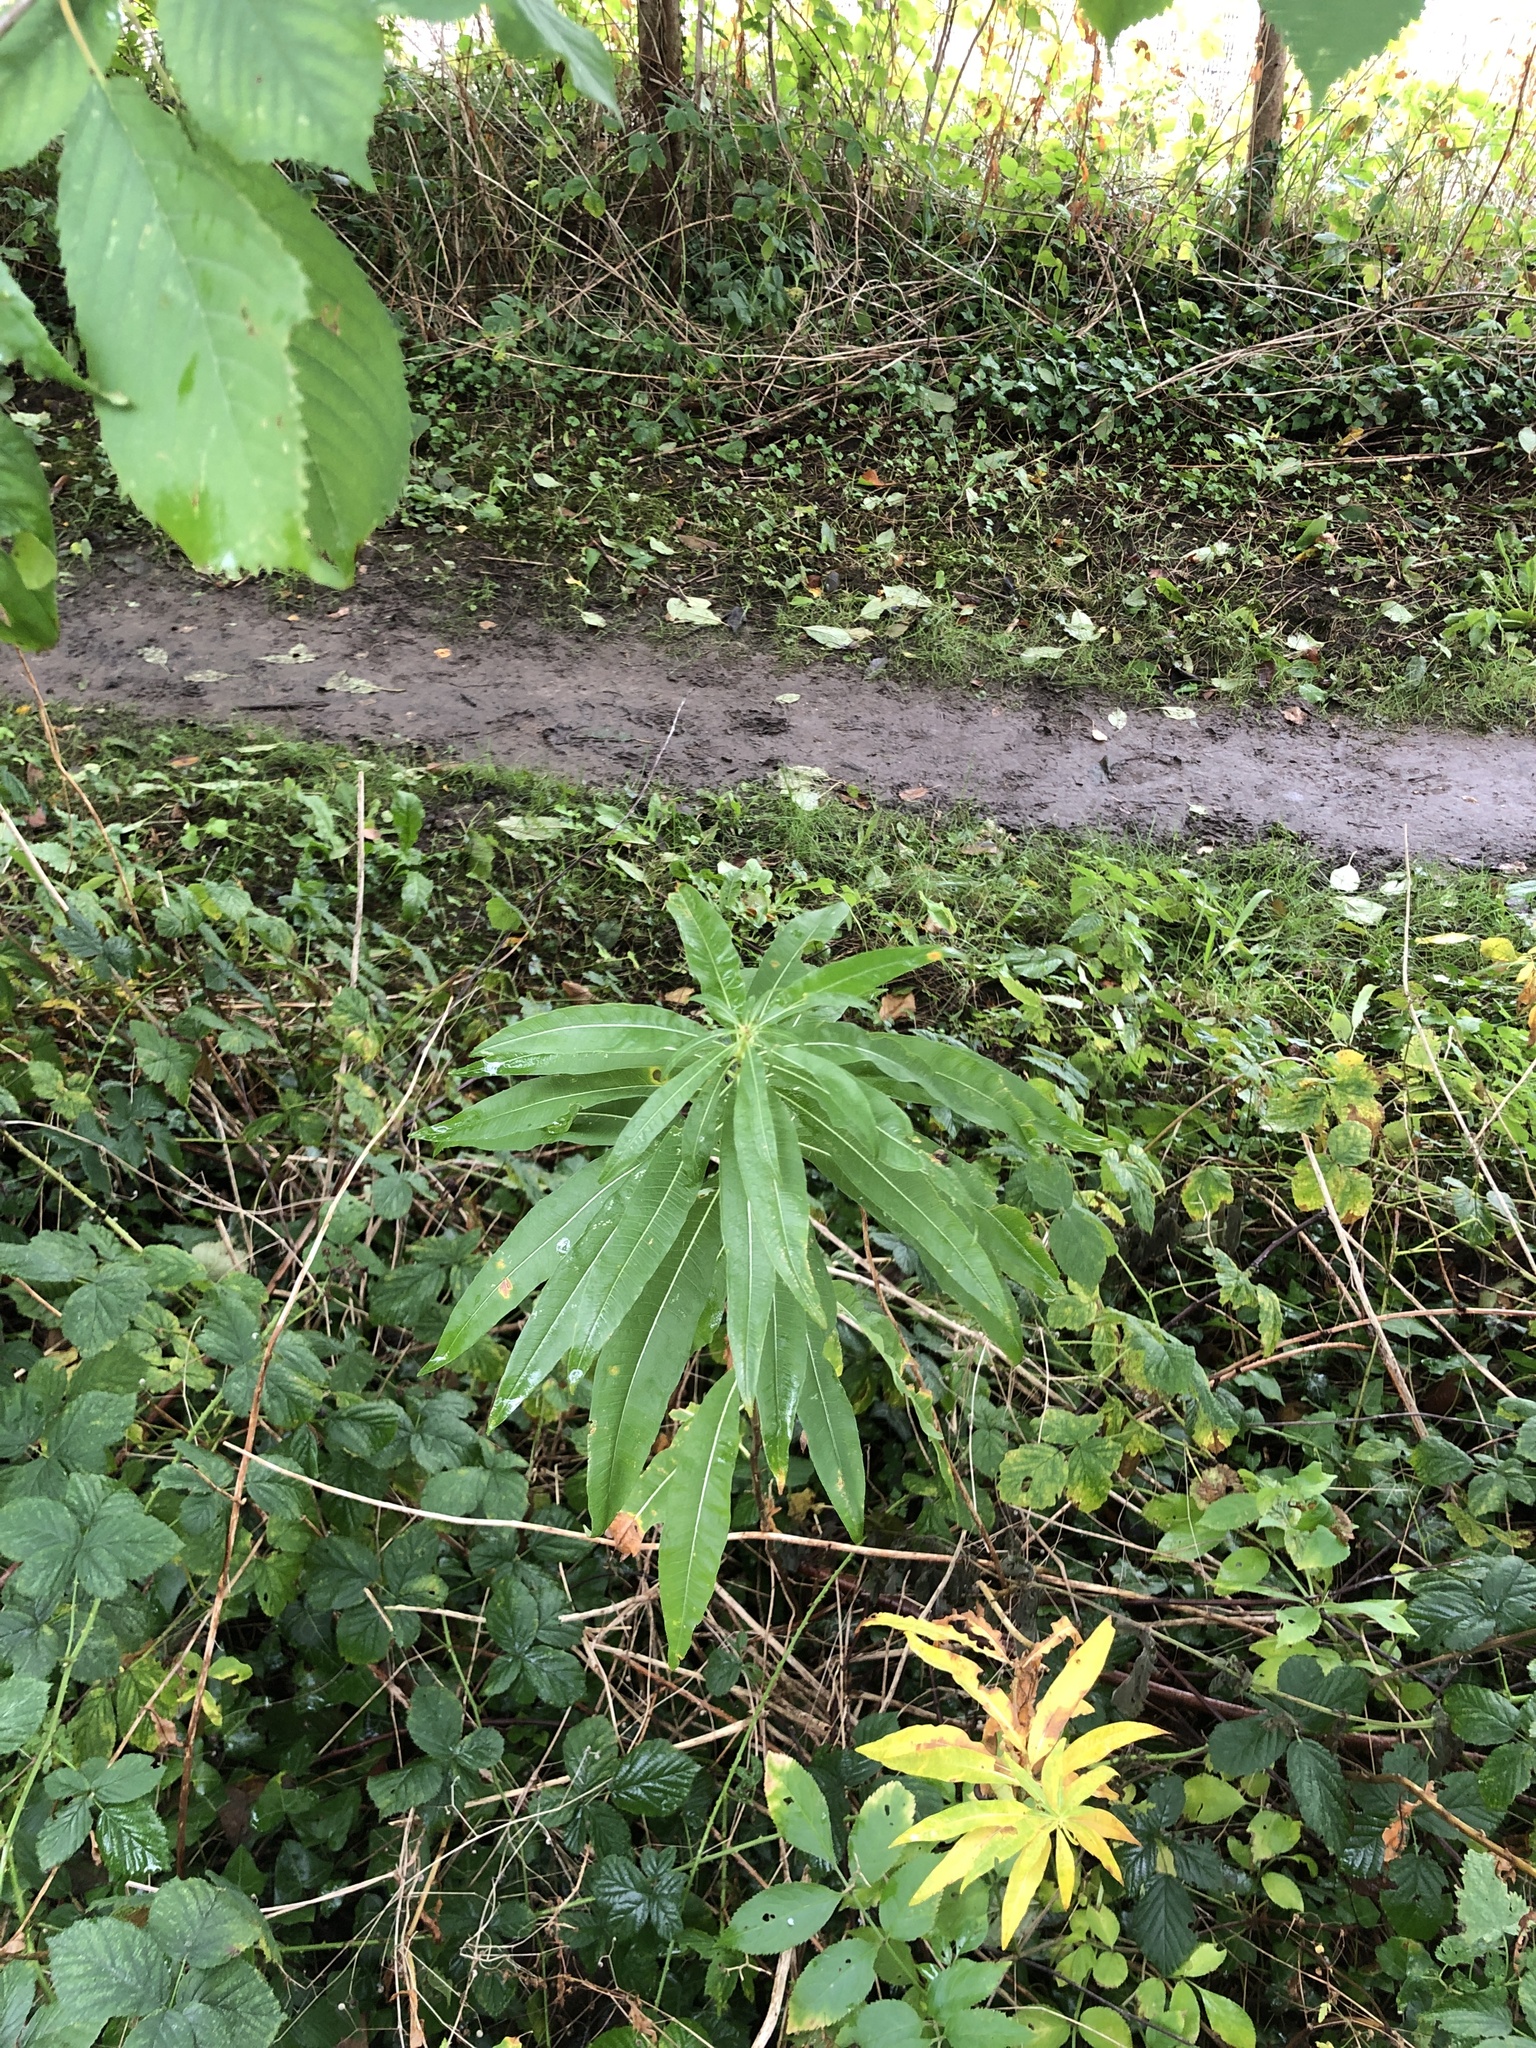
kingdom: Plantae
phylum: Tracheophyta
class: Magnoliopsida
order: Myrtales
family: Onagraceae
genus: Chamaenerion
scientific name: Chamaenerion angustifolium
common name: Fireweed
